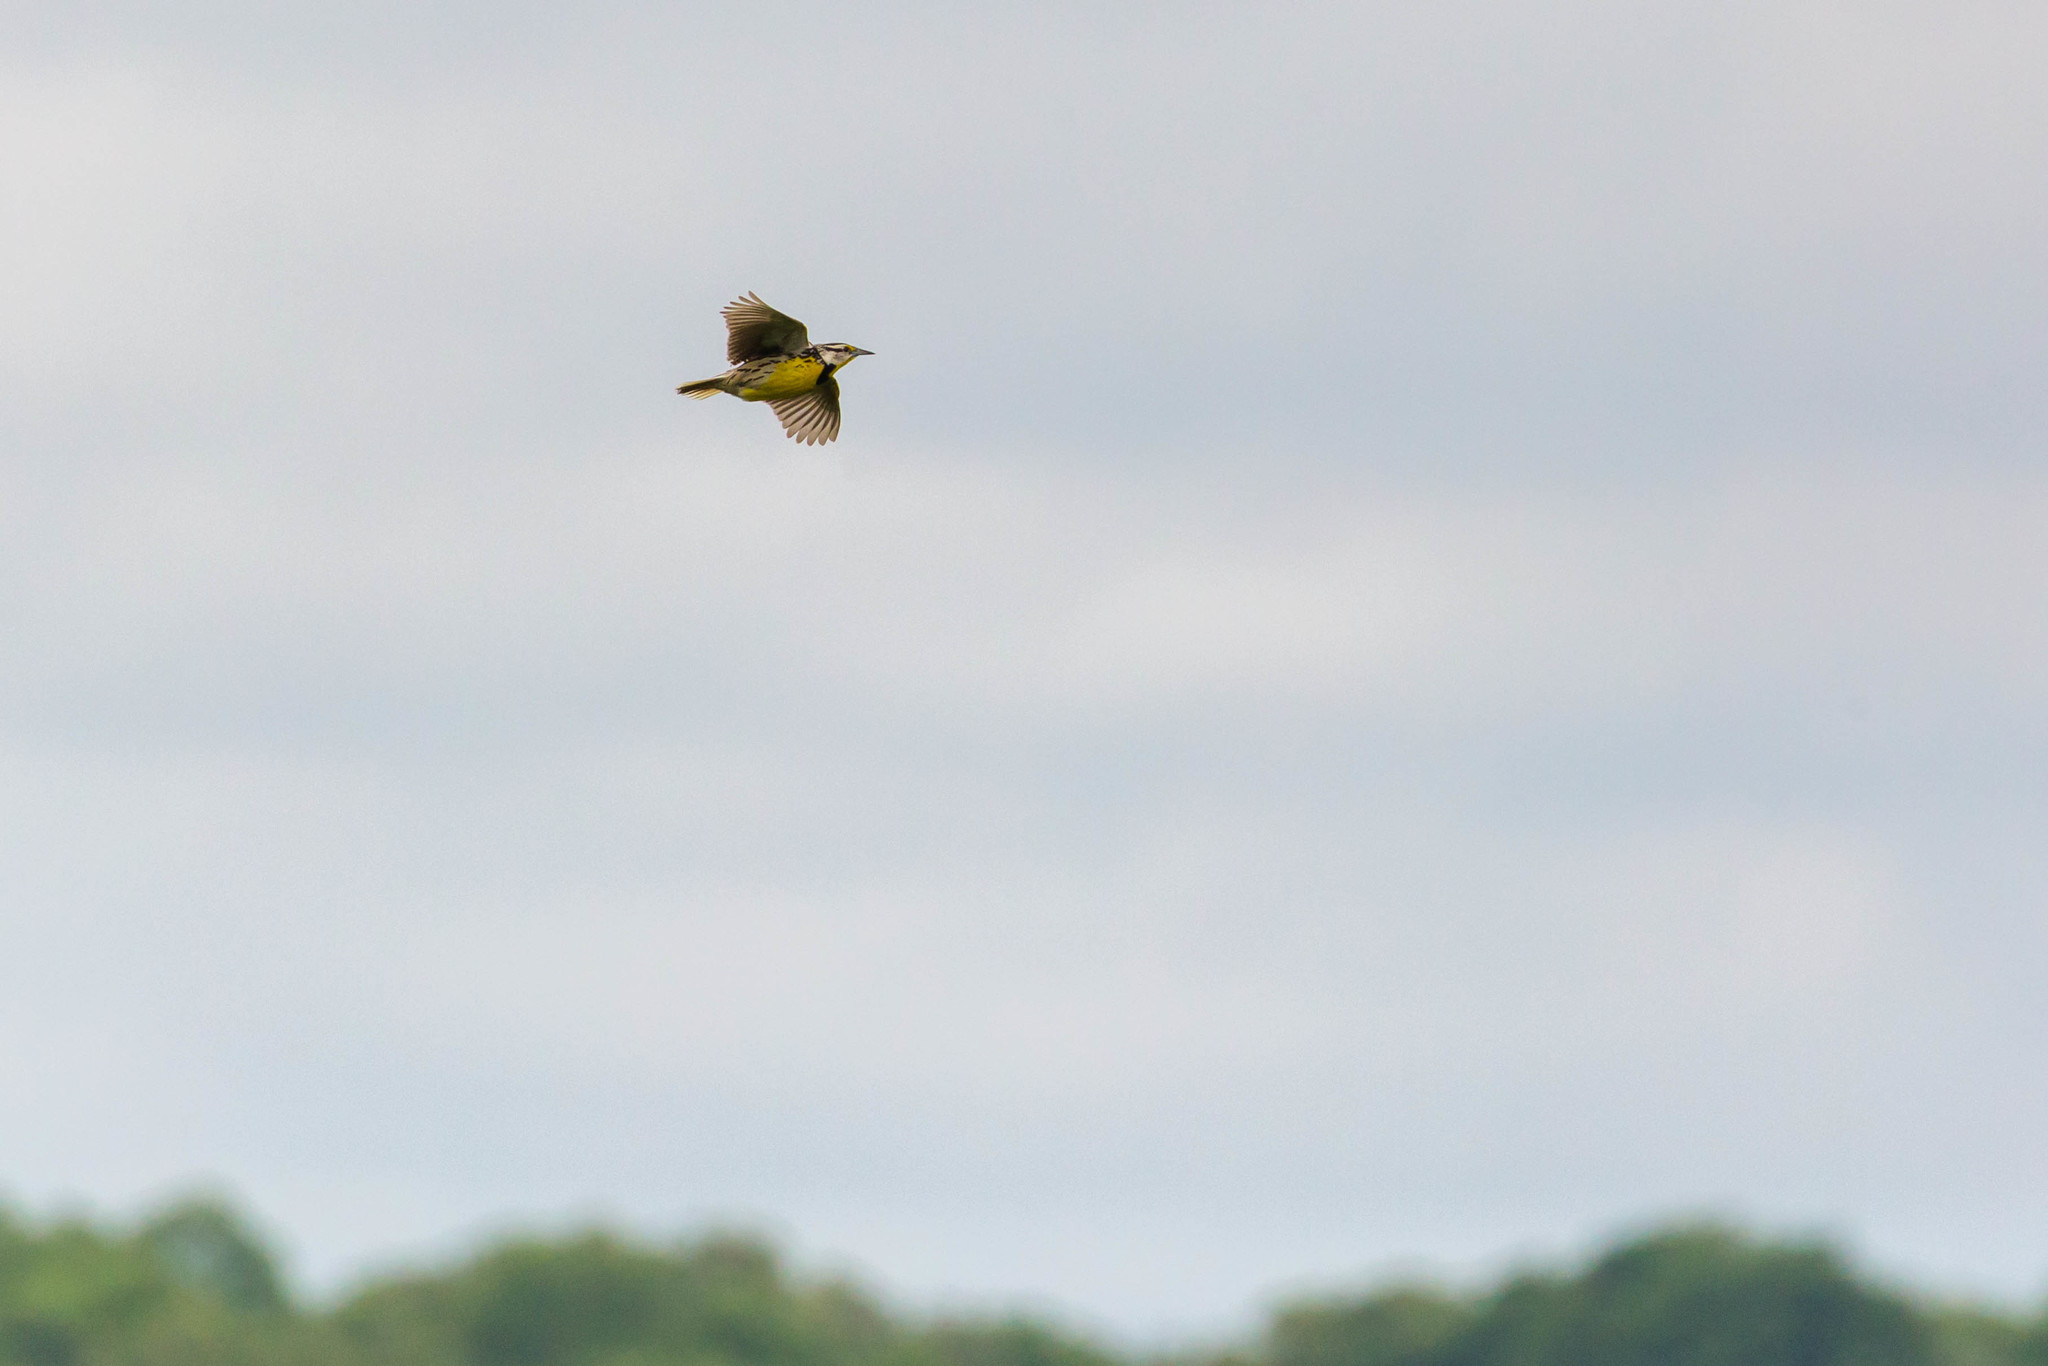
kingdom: Animalia
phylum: Chordata
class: Aves
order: Passeriformes
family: Icteridae
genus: Sturnella
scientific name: Sturnella magna
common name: Eastern meadowlark
